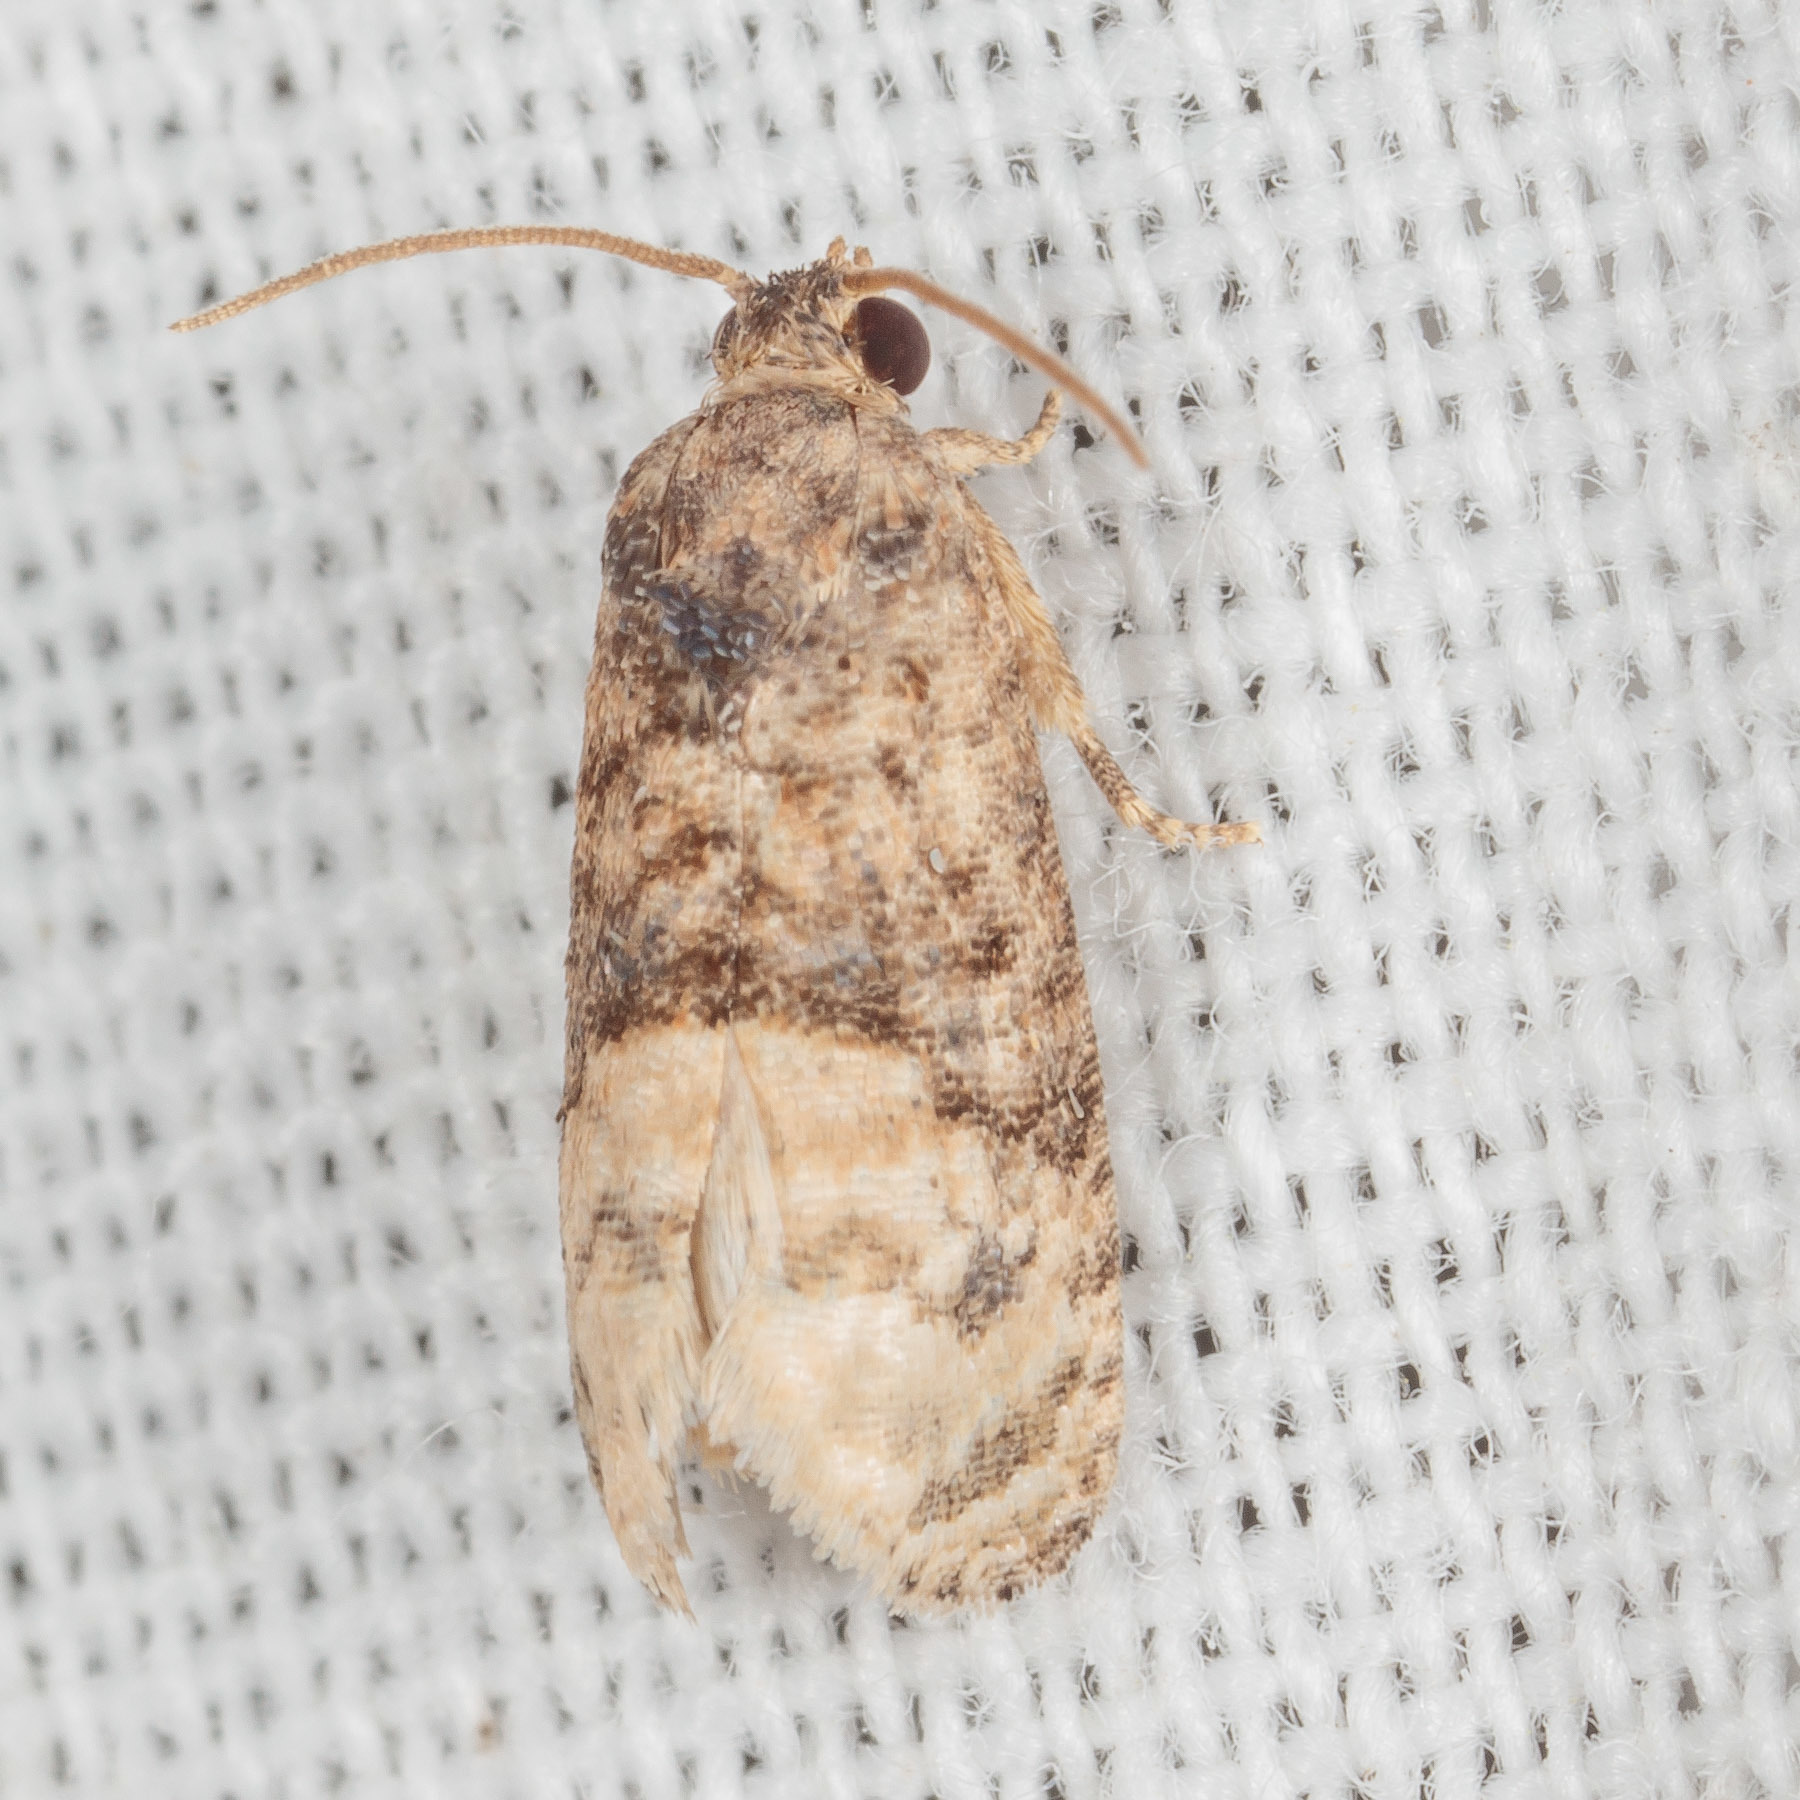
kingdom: Animalia
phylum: Arthropoda
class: Insecta
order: Lepidoptera
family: Tortricidae
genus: Ecdytolopha
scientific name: Ecdytolopha mana
